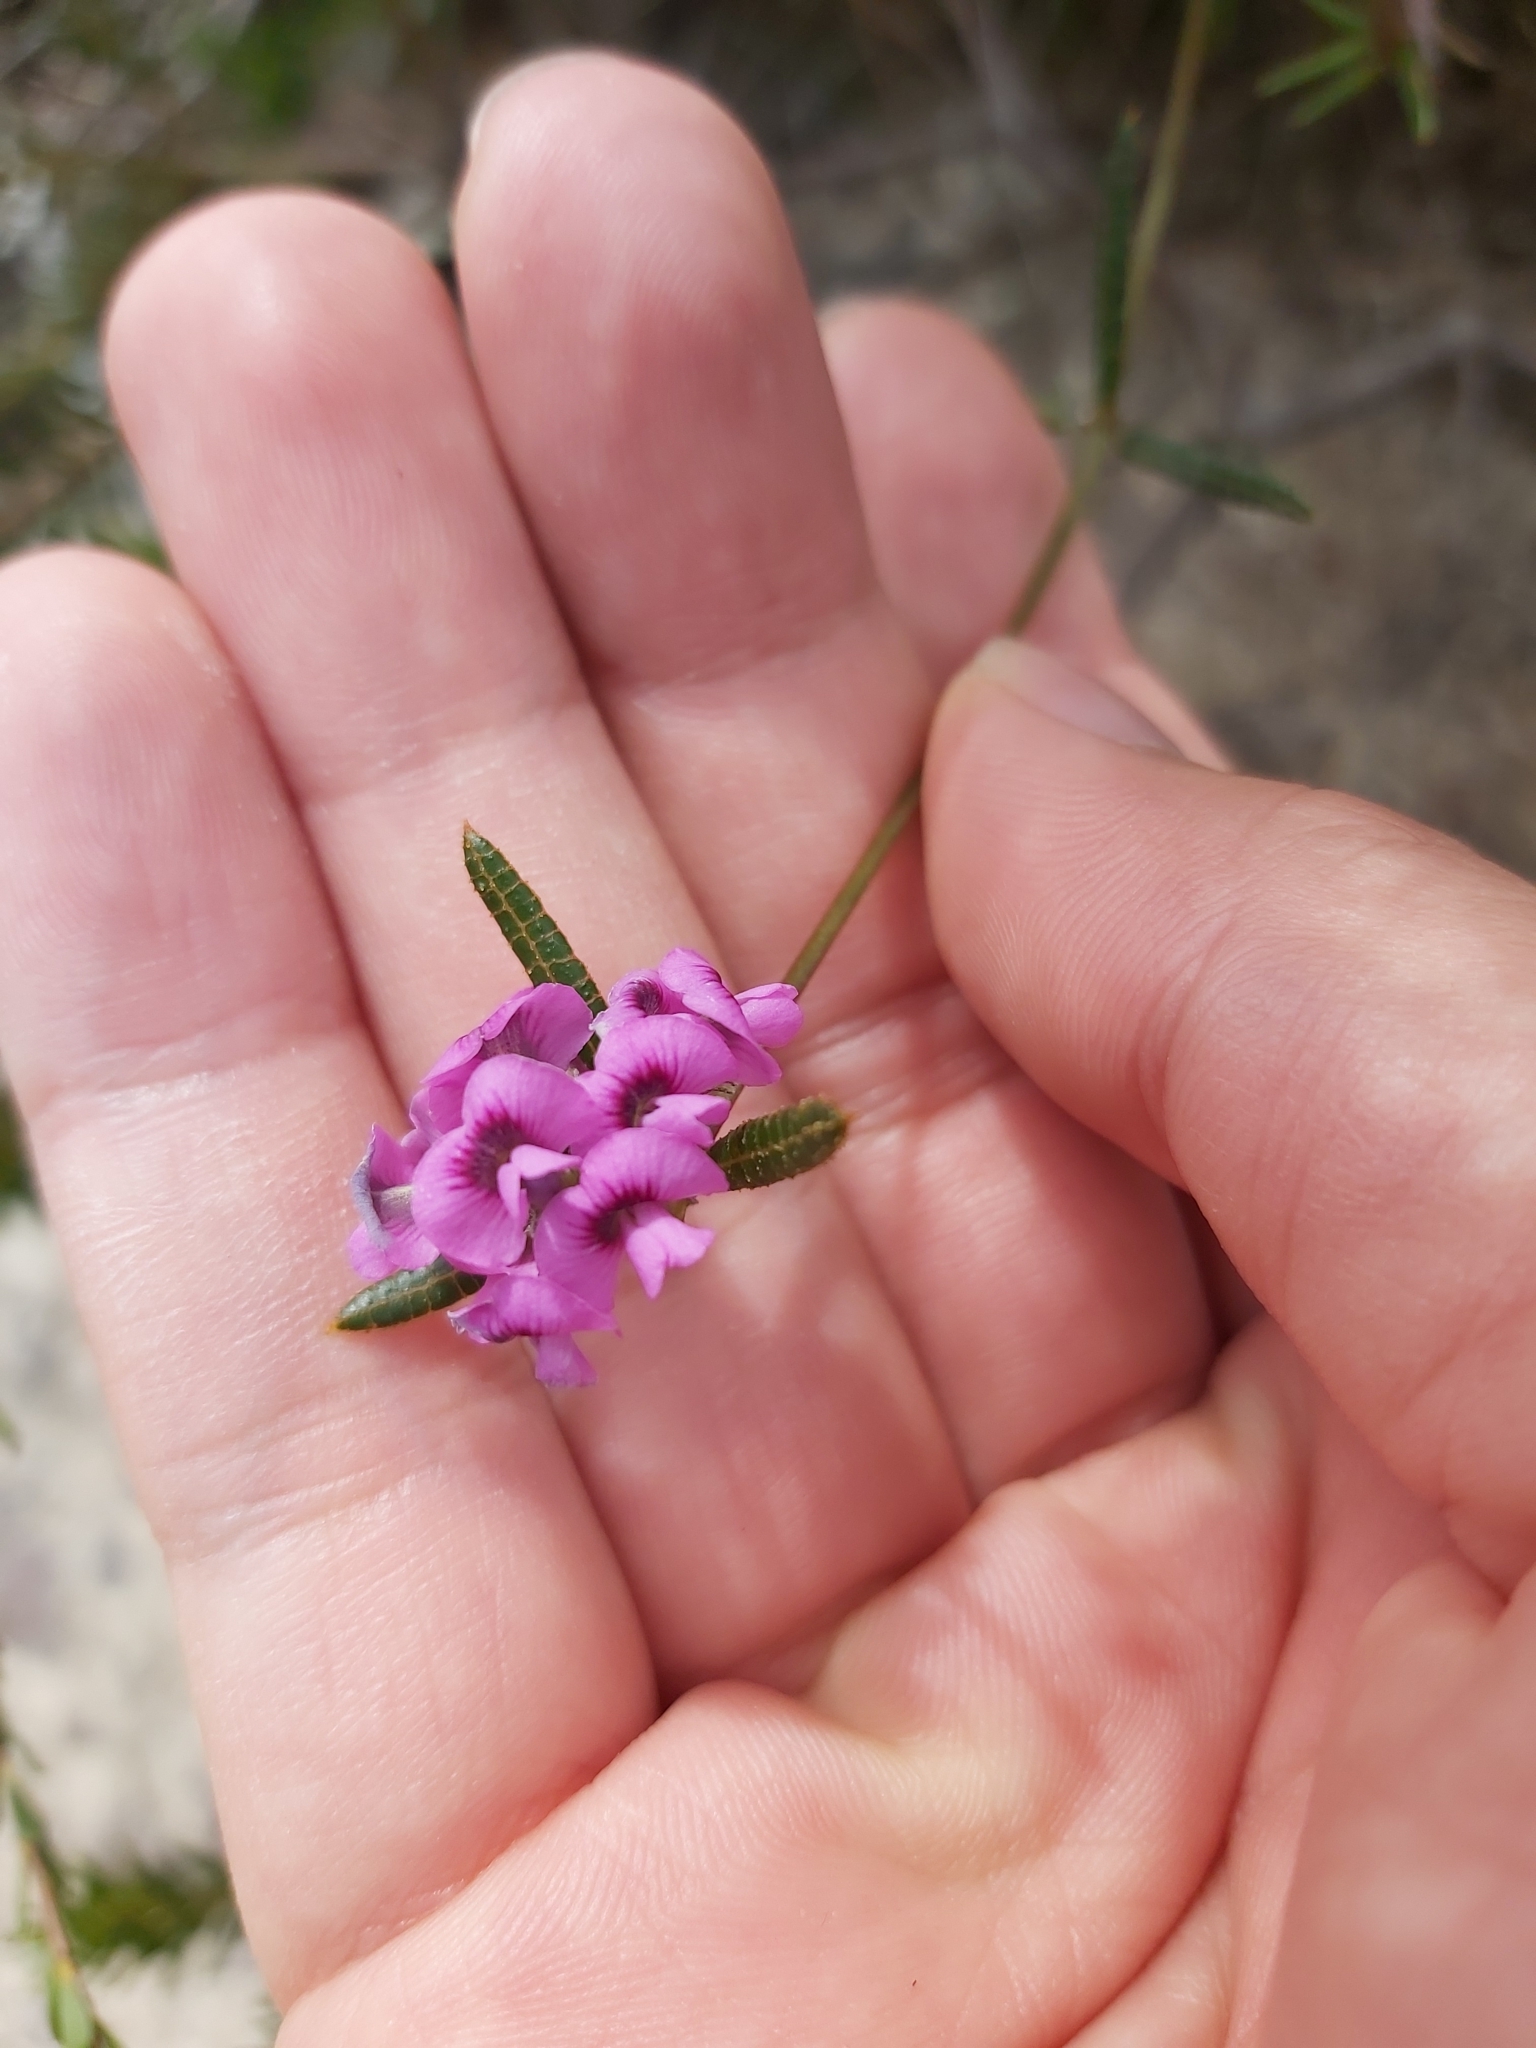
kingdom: Plantae
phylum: Tracheophyta
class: Magnoliopsida
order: Fabales
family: Fabaceae
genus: Mirbelia
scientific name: Mirbelia rubiifolia
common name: Heathy mirbelia
